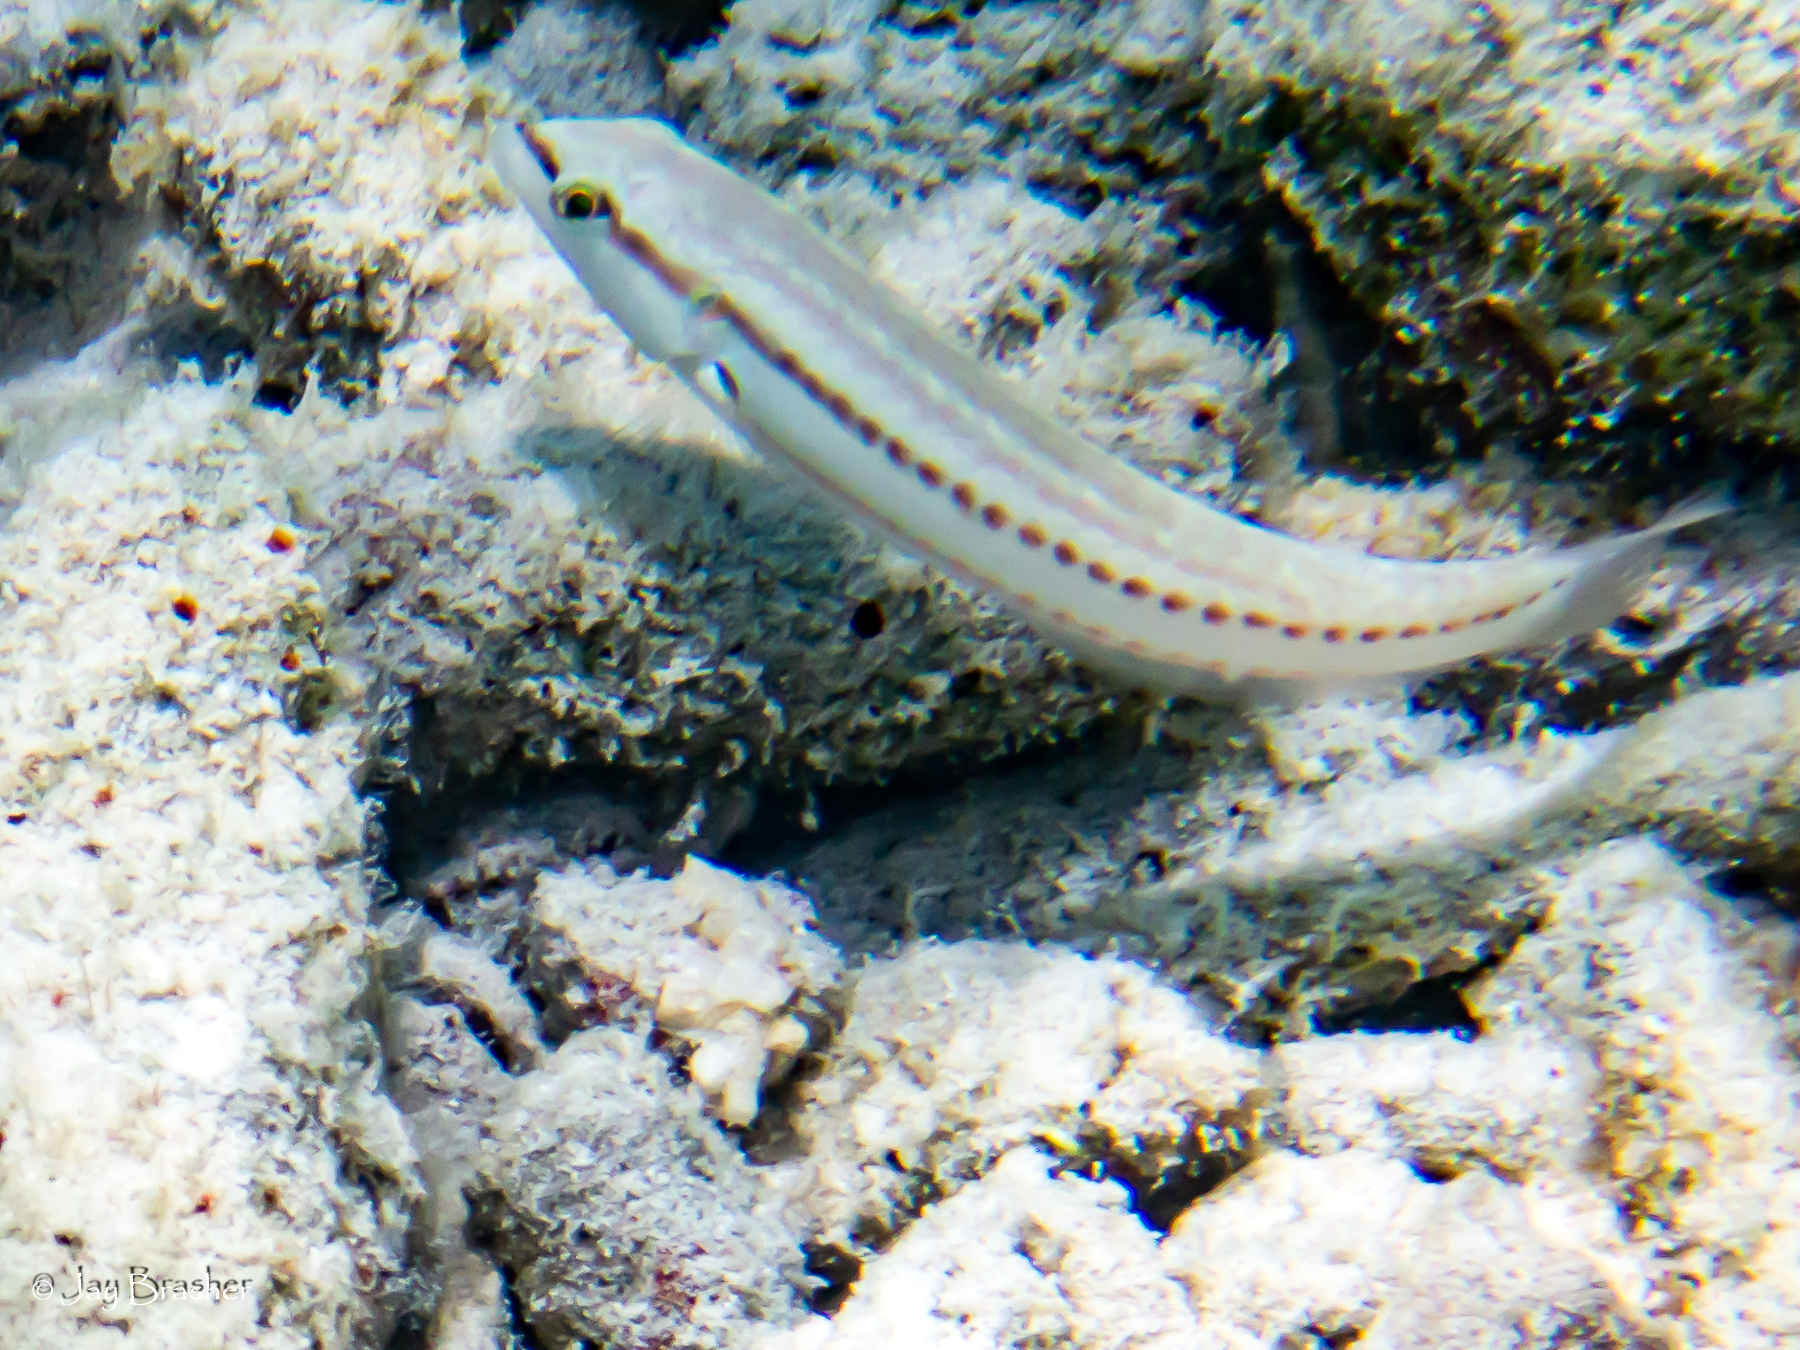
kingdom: Animalia
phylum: Chordata
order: Perciformes
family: Labridae
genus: Halichoeres
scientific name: Halichoeres bivittatus
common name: Slippery dick
